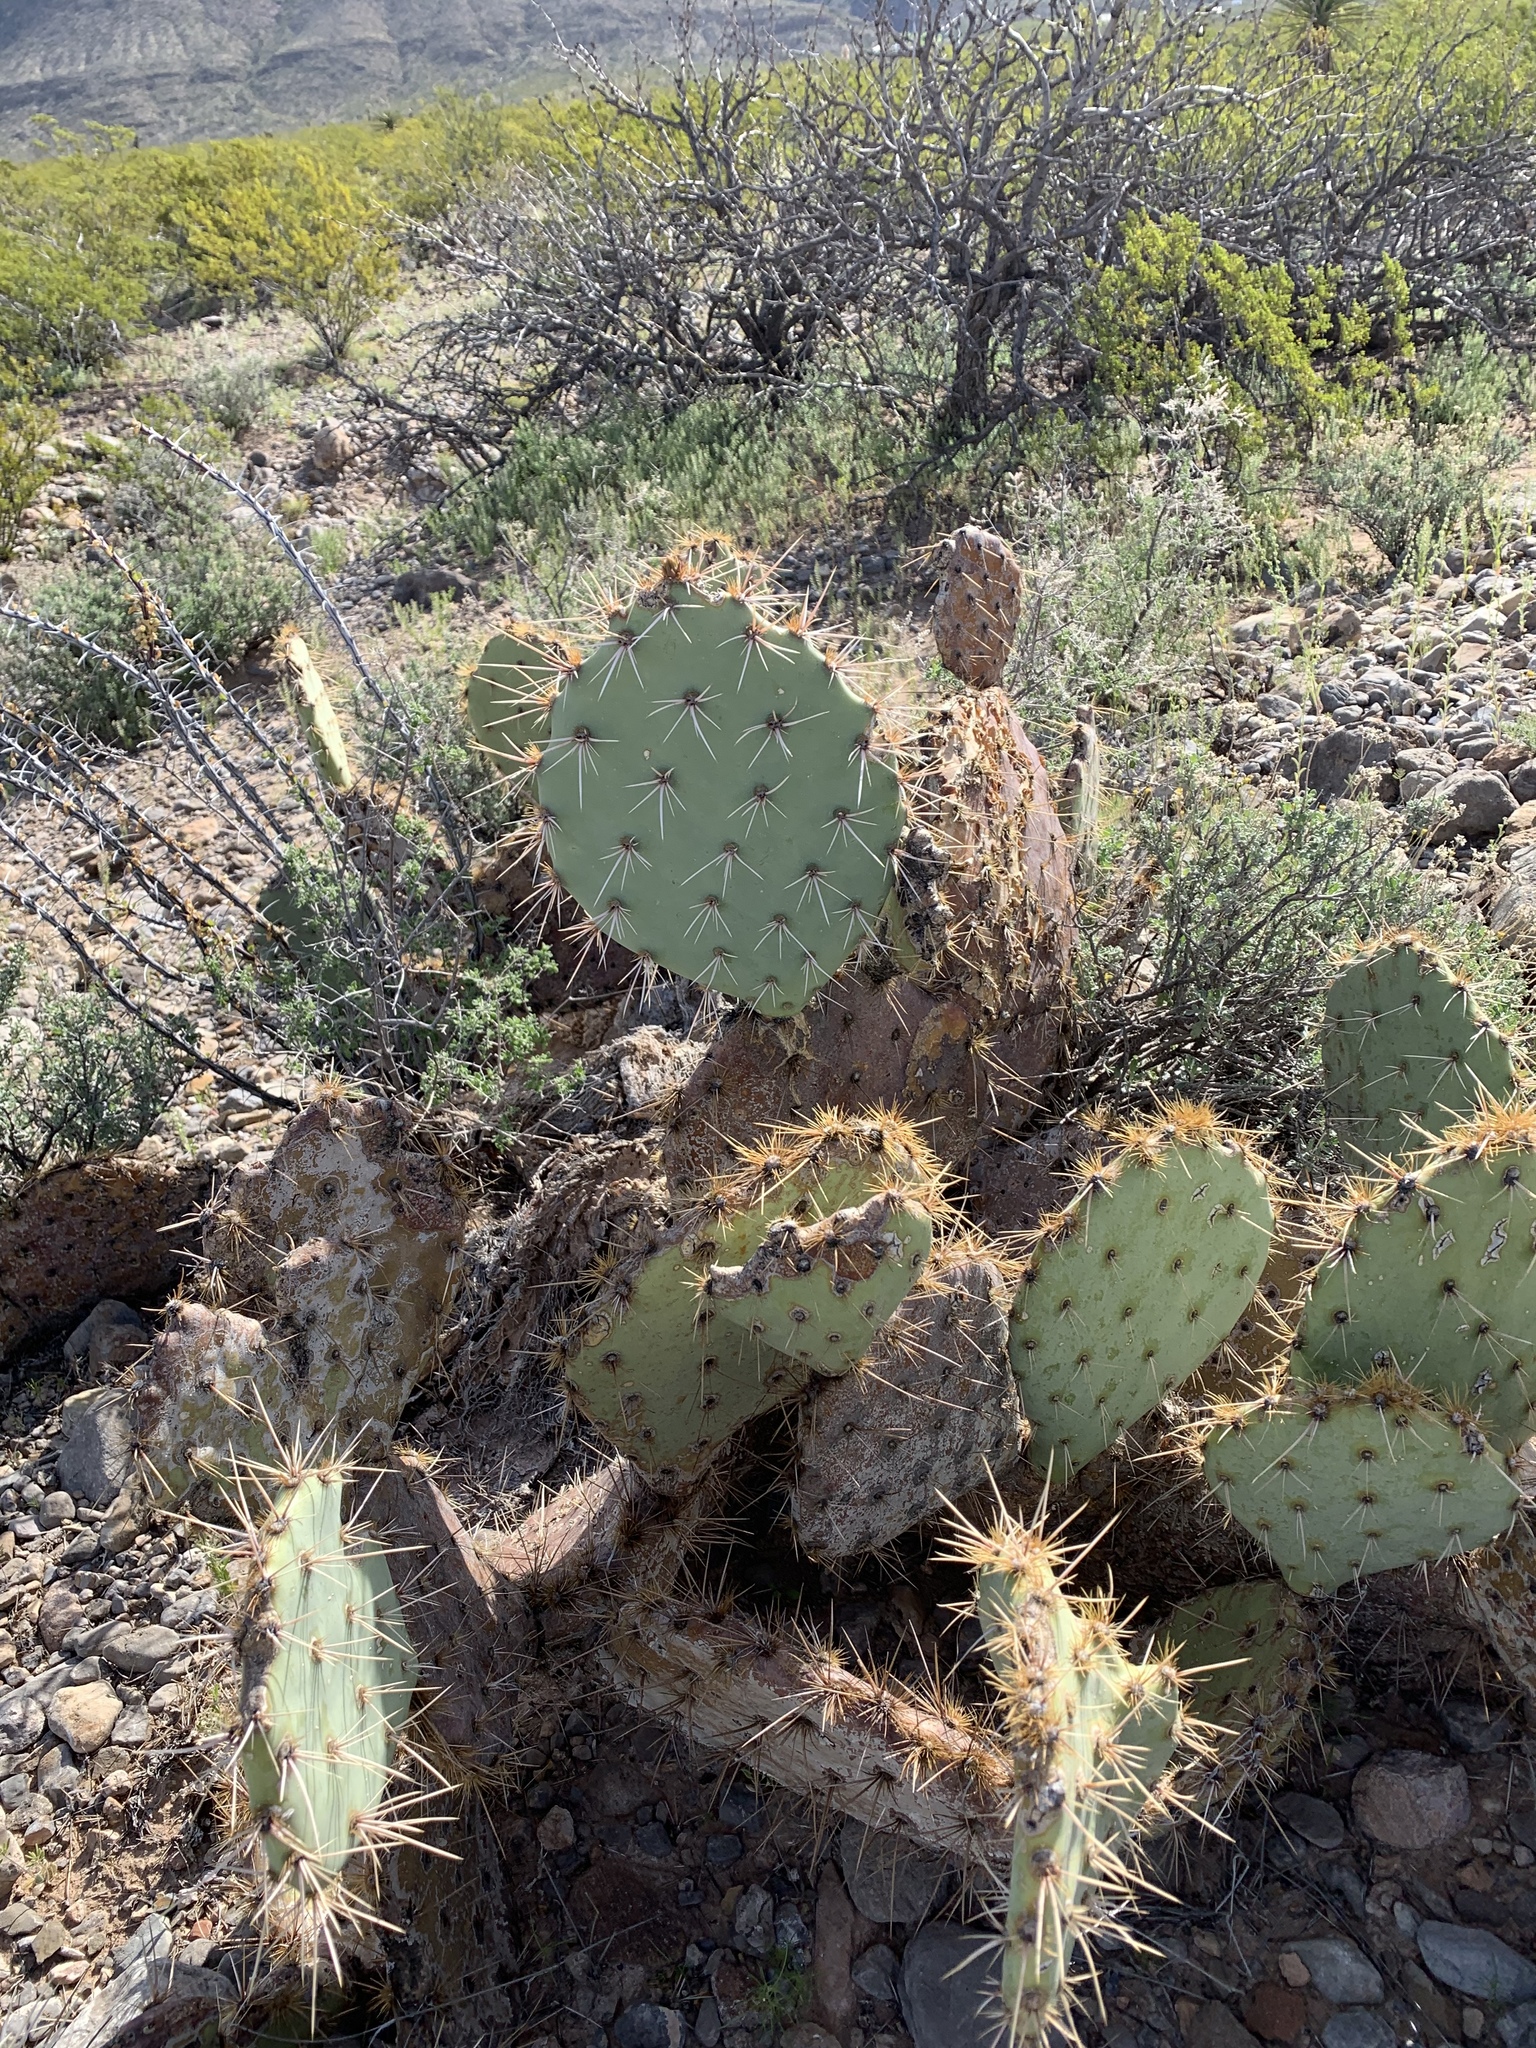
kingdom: Plantae
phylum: Tracheophyta
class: Magnoliopsida
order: Caryophyllales
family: Cactaceae
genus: Opuntia
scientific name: Opuntia engelmannii
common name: Cactus-apple
